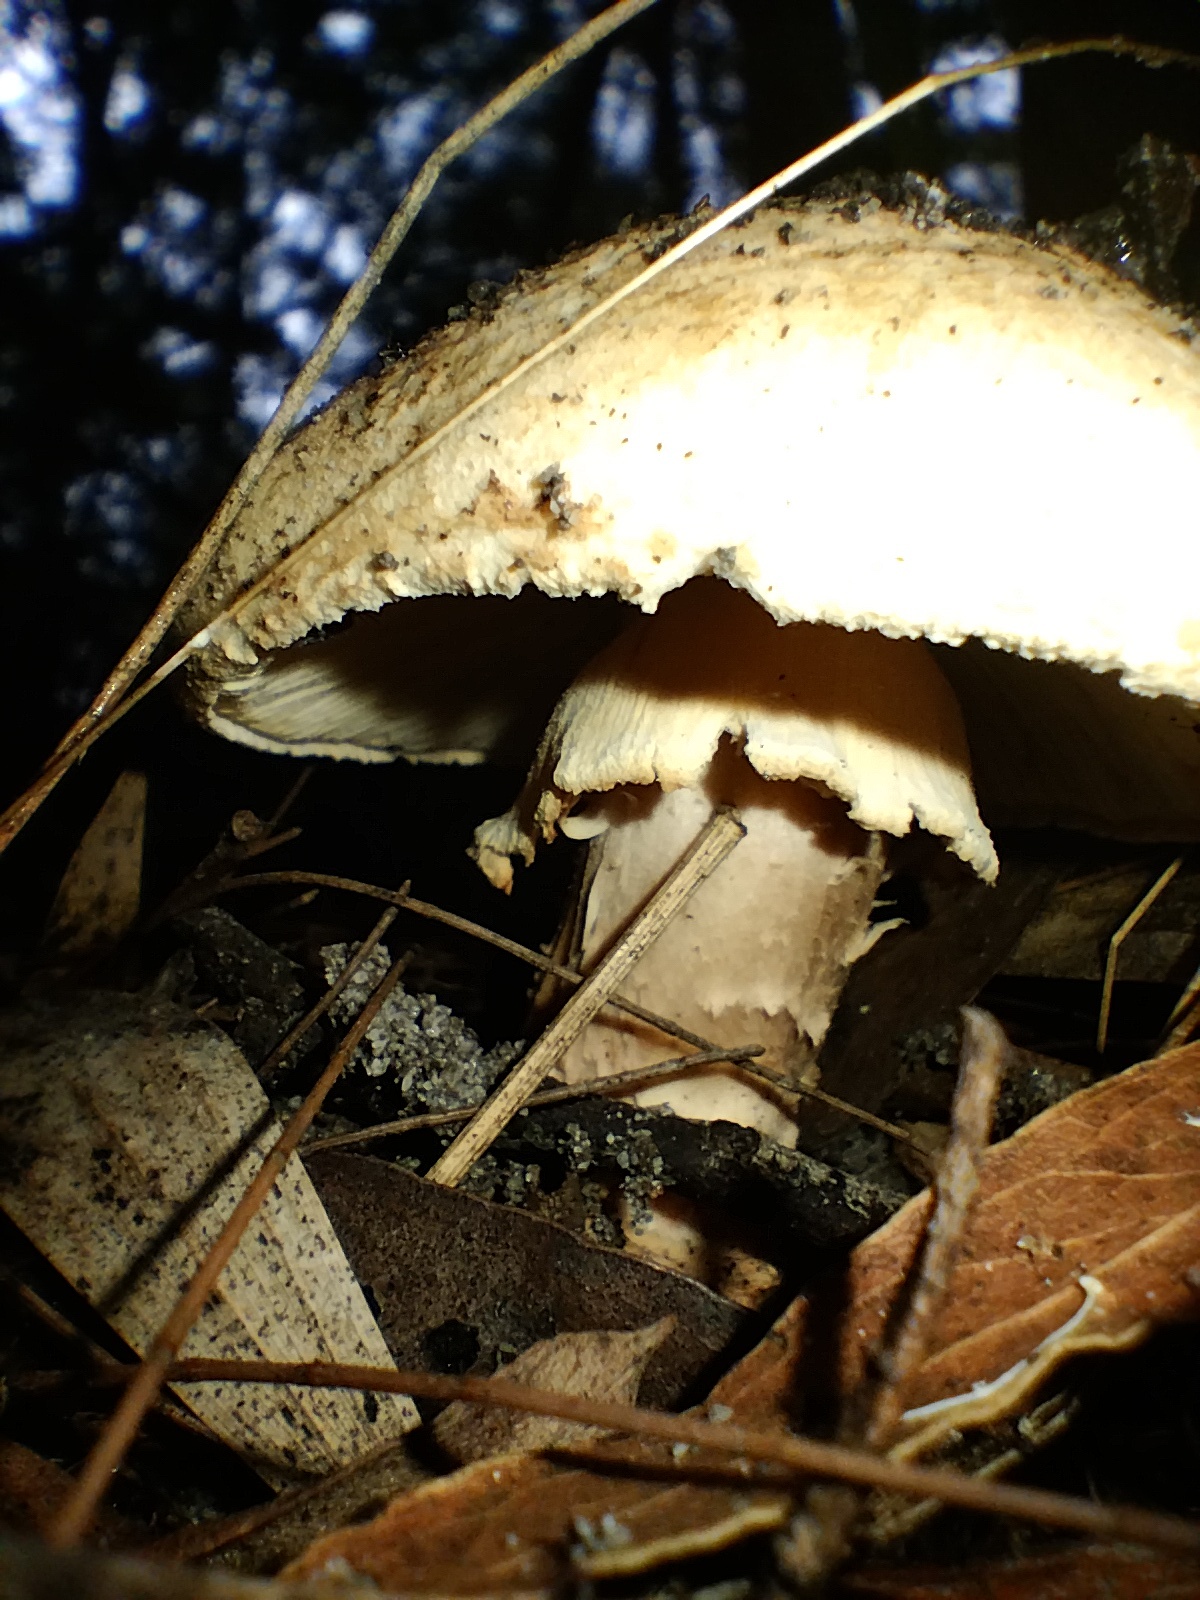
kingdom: Fungi
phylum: Basidiomycota
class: Agaricomycetes
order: Agaricales
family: Amanitaceae
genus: Amanita
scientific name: Amanita ochrophylla
